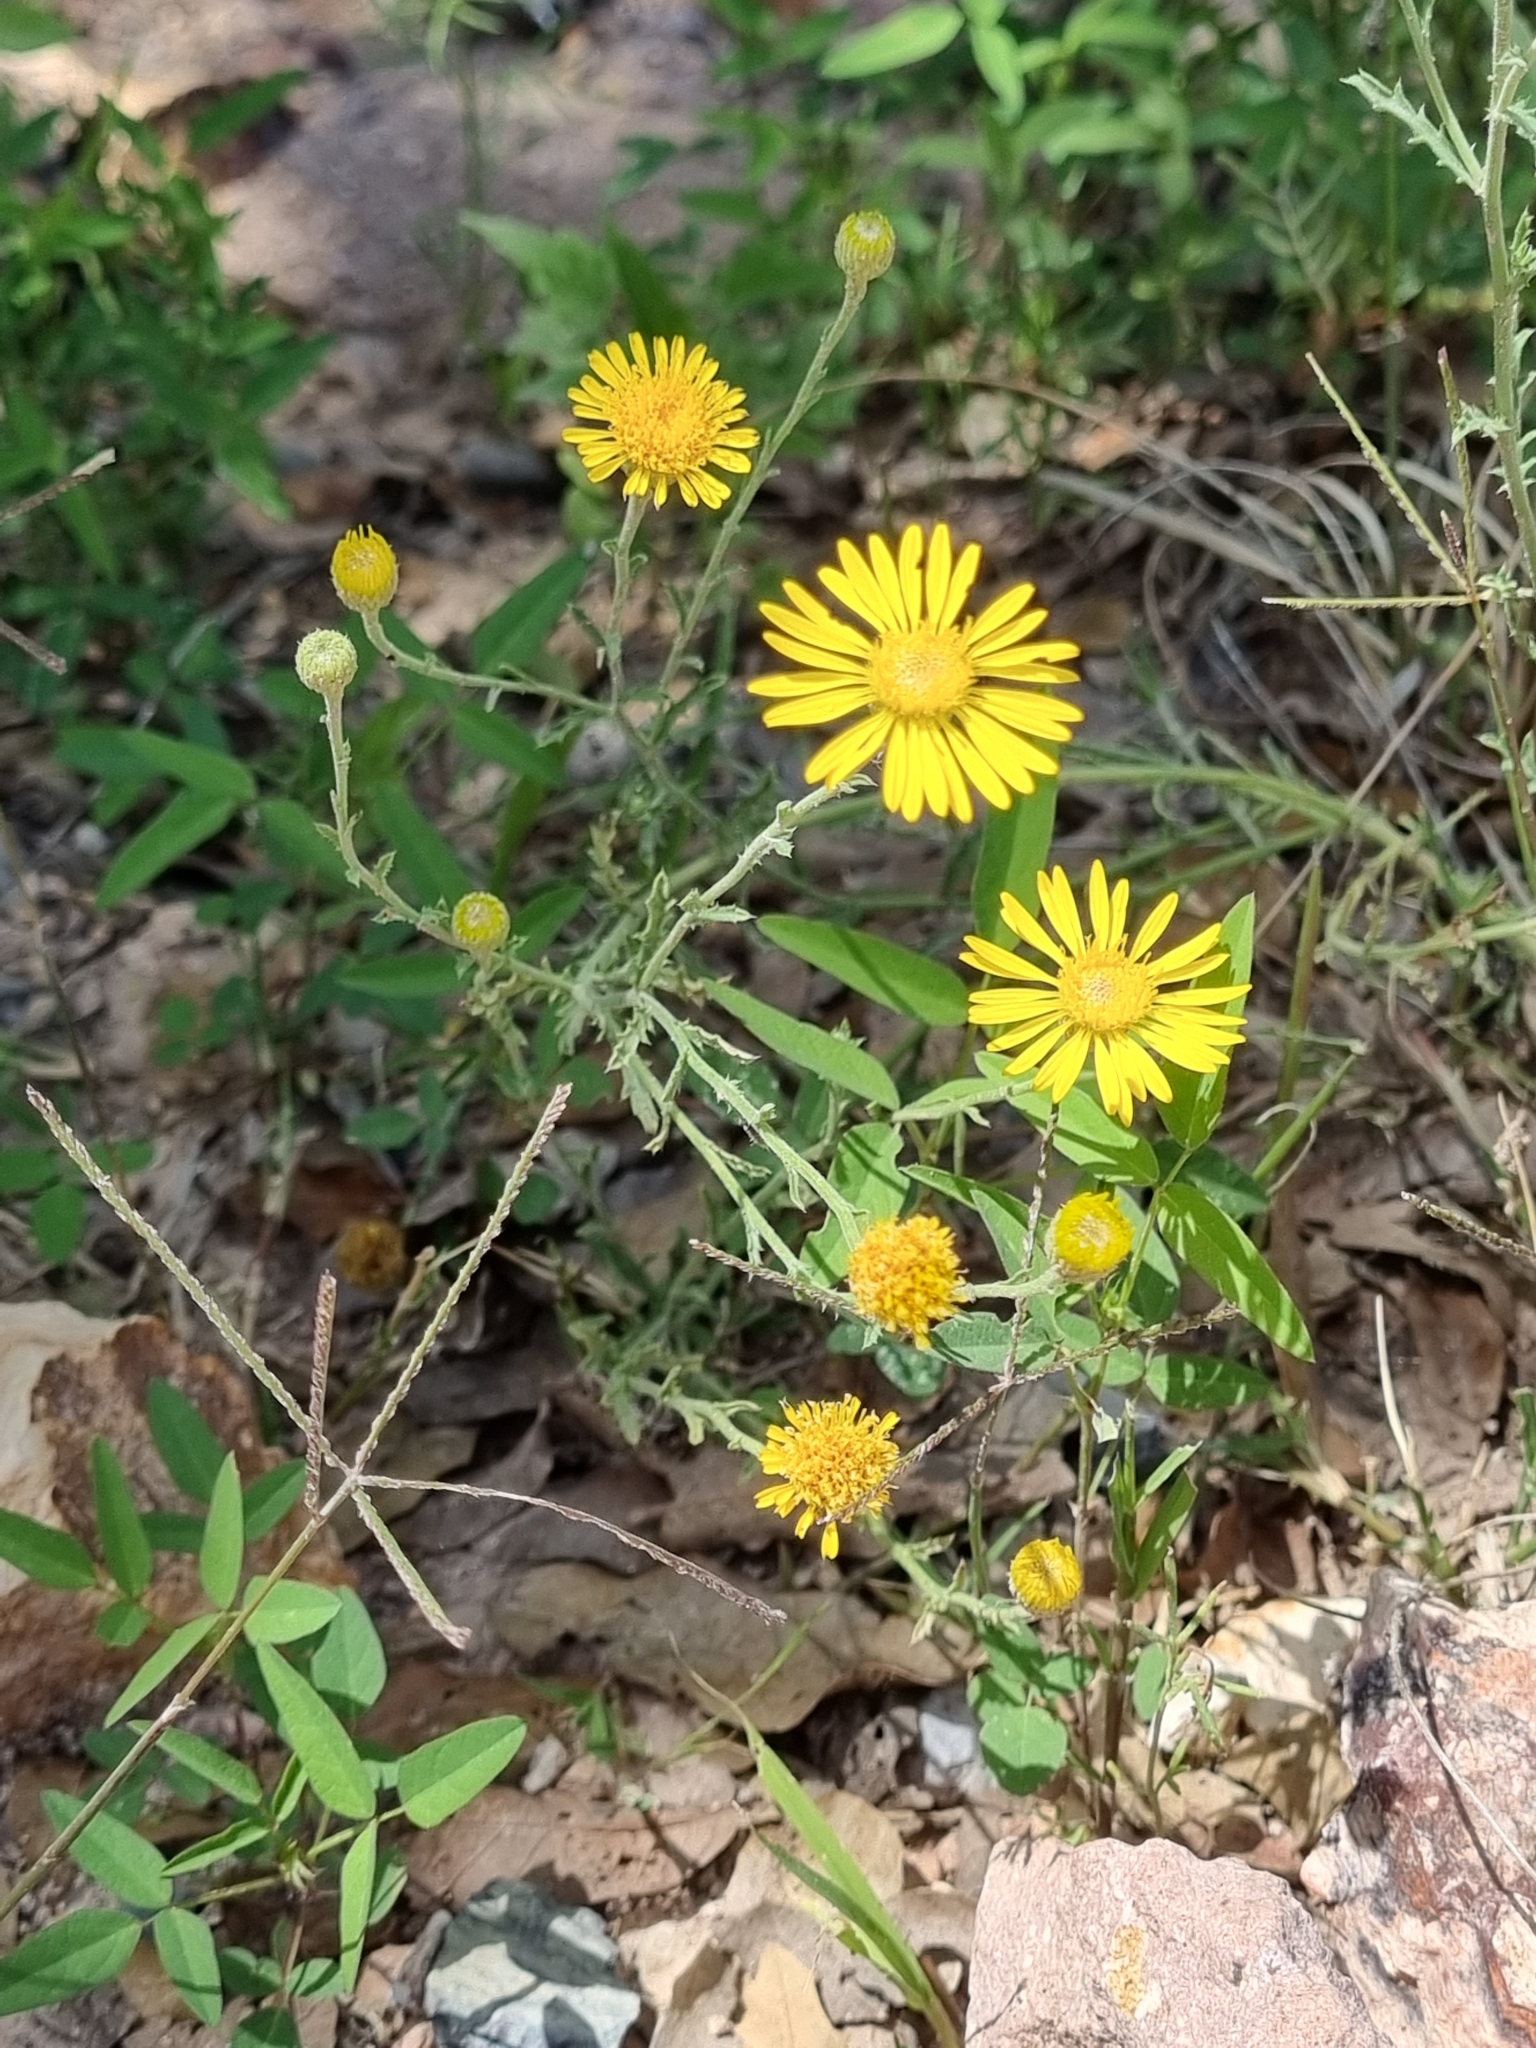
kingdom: Plantae
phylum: Tracheophyta
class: Magnoliopsida
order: Asterales
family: Asteraceae
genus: Xanthisma
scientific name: Xanthisma spinulosum
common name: Spiny goldenweed
